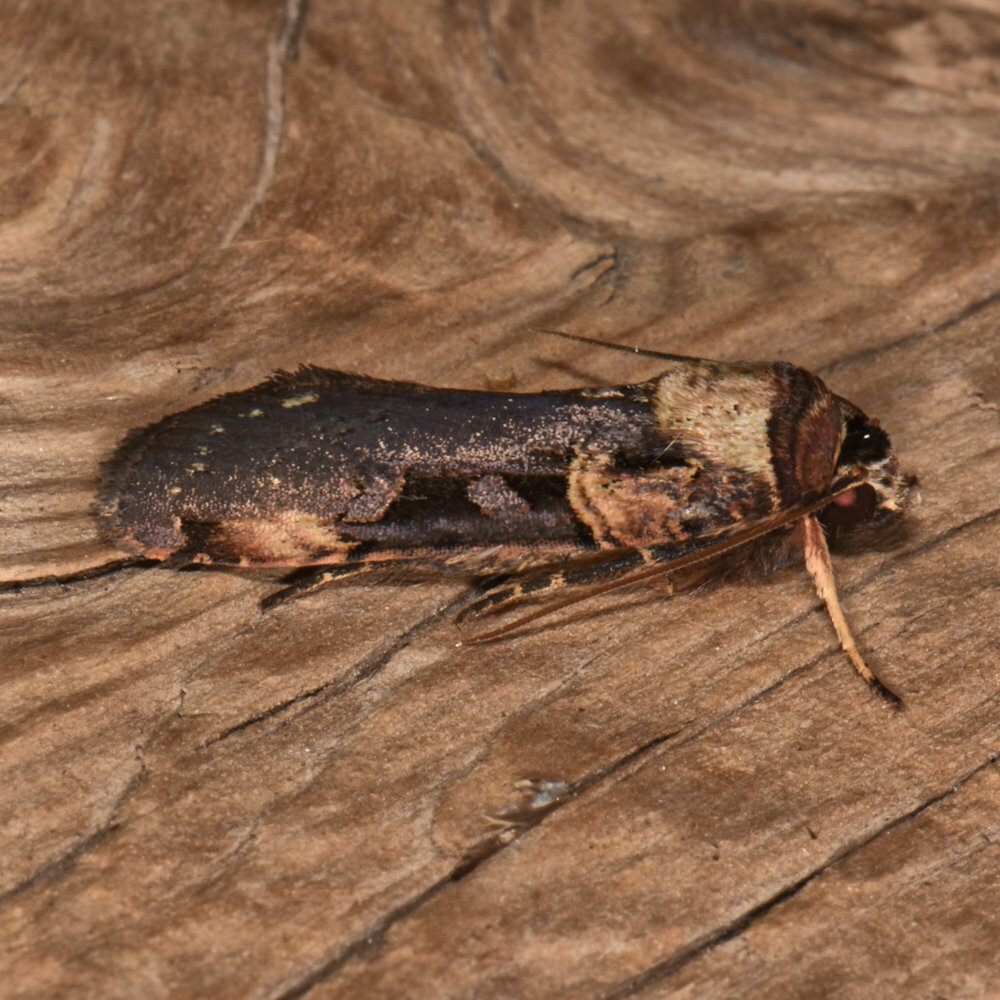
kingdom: Animalia
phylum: Arthropoda
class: Insecta
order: Lepidoptera
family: Noctuidae
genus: Pseudohermonassa
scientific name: Pseudohermonassa bicarnea
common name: Pink spotted dart
